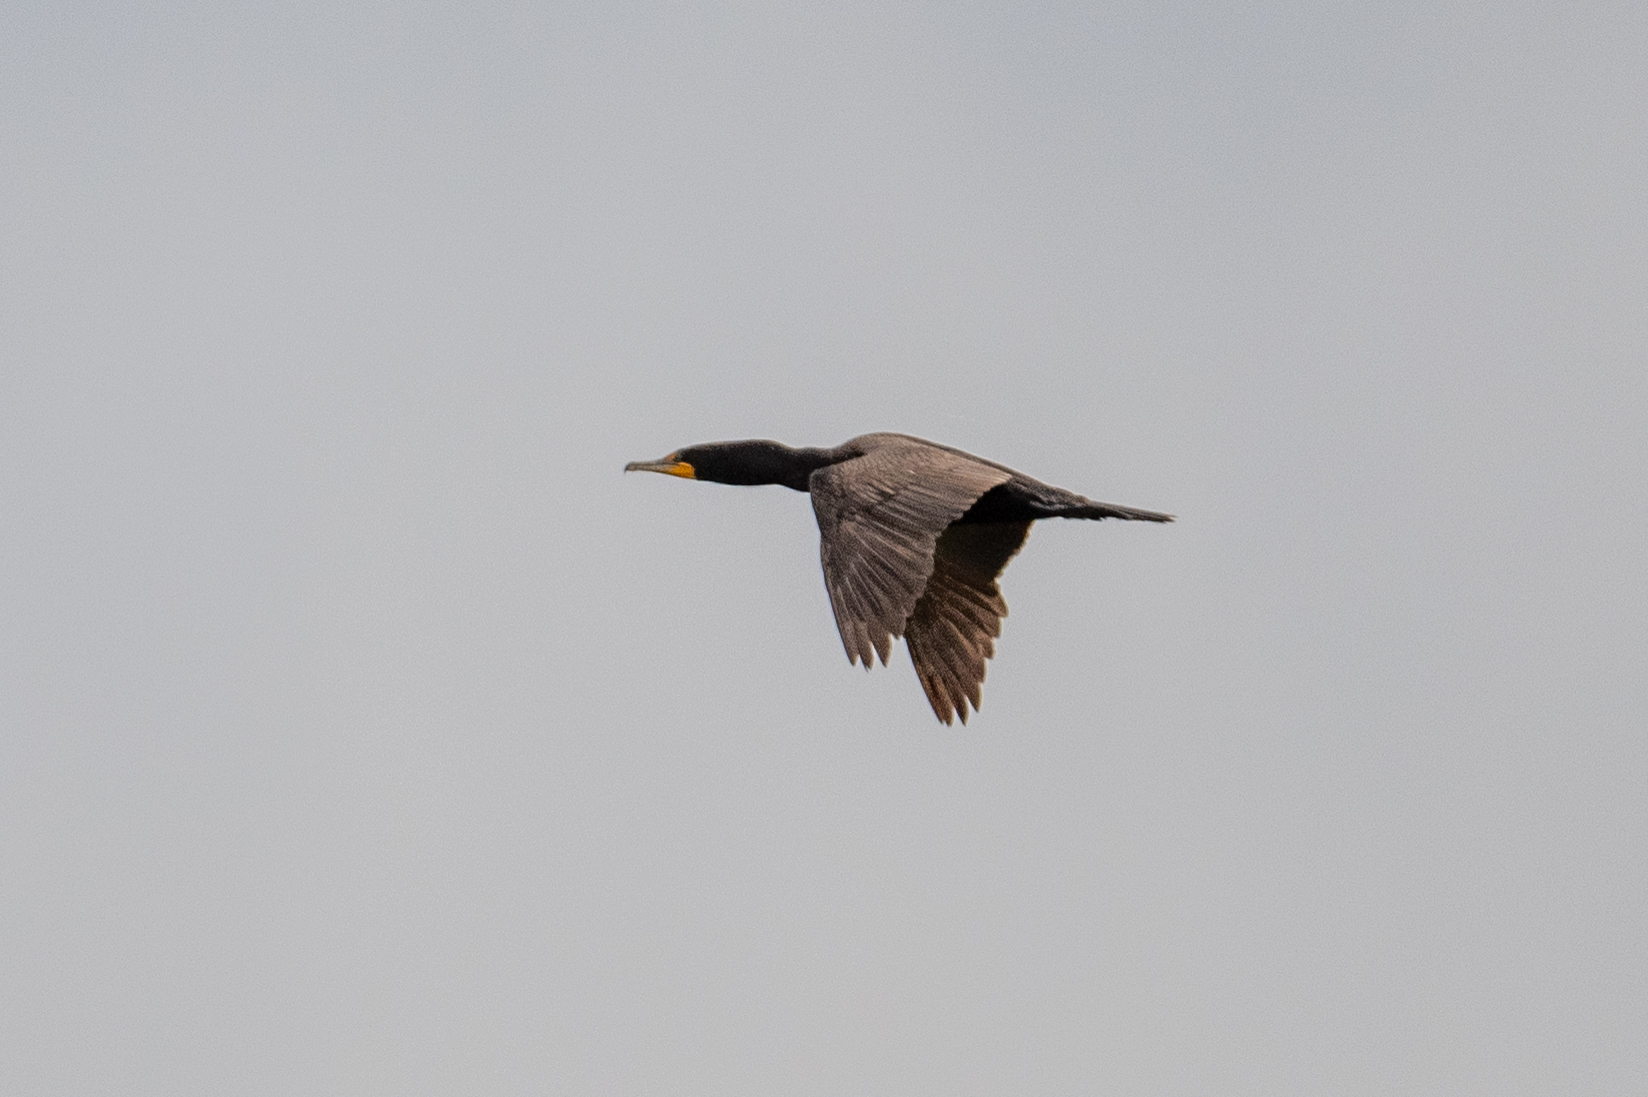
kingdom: Animalia
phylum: Chordata
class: Aves
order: Suliformes
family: Phalacrocoracidae
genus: Phalacrocorax
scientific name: Phalacrocorax auritus
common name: Double-crested cormorant
